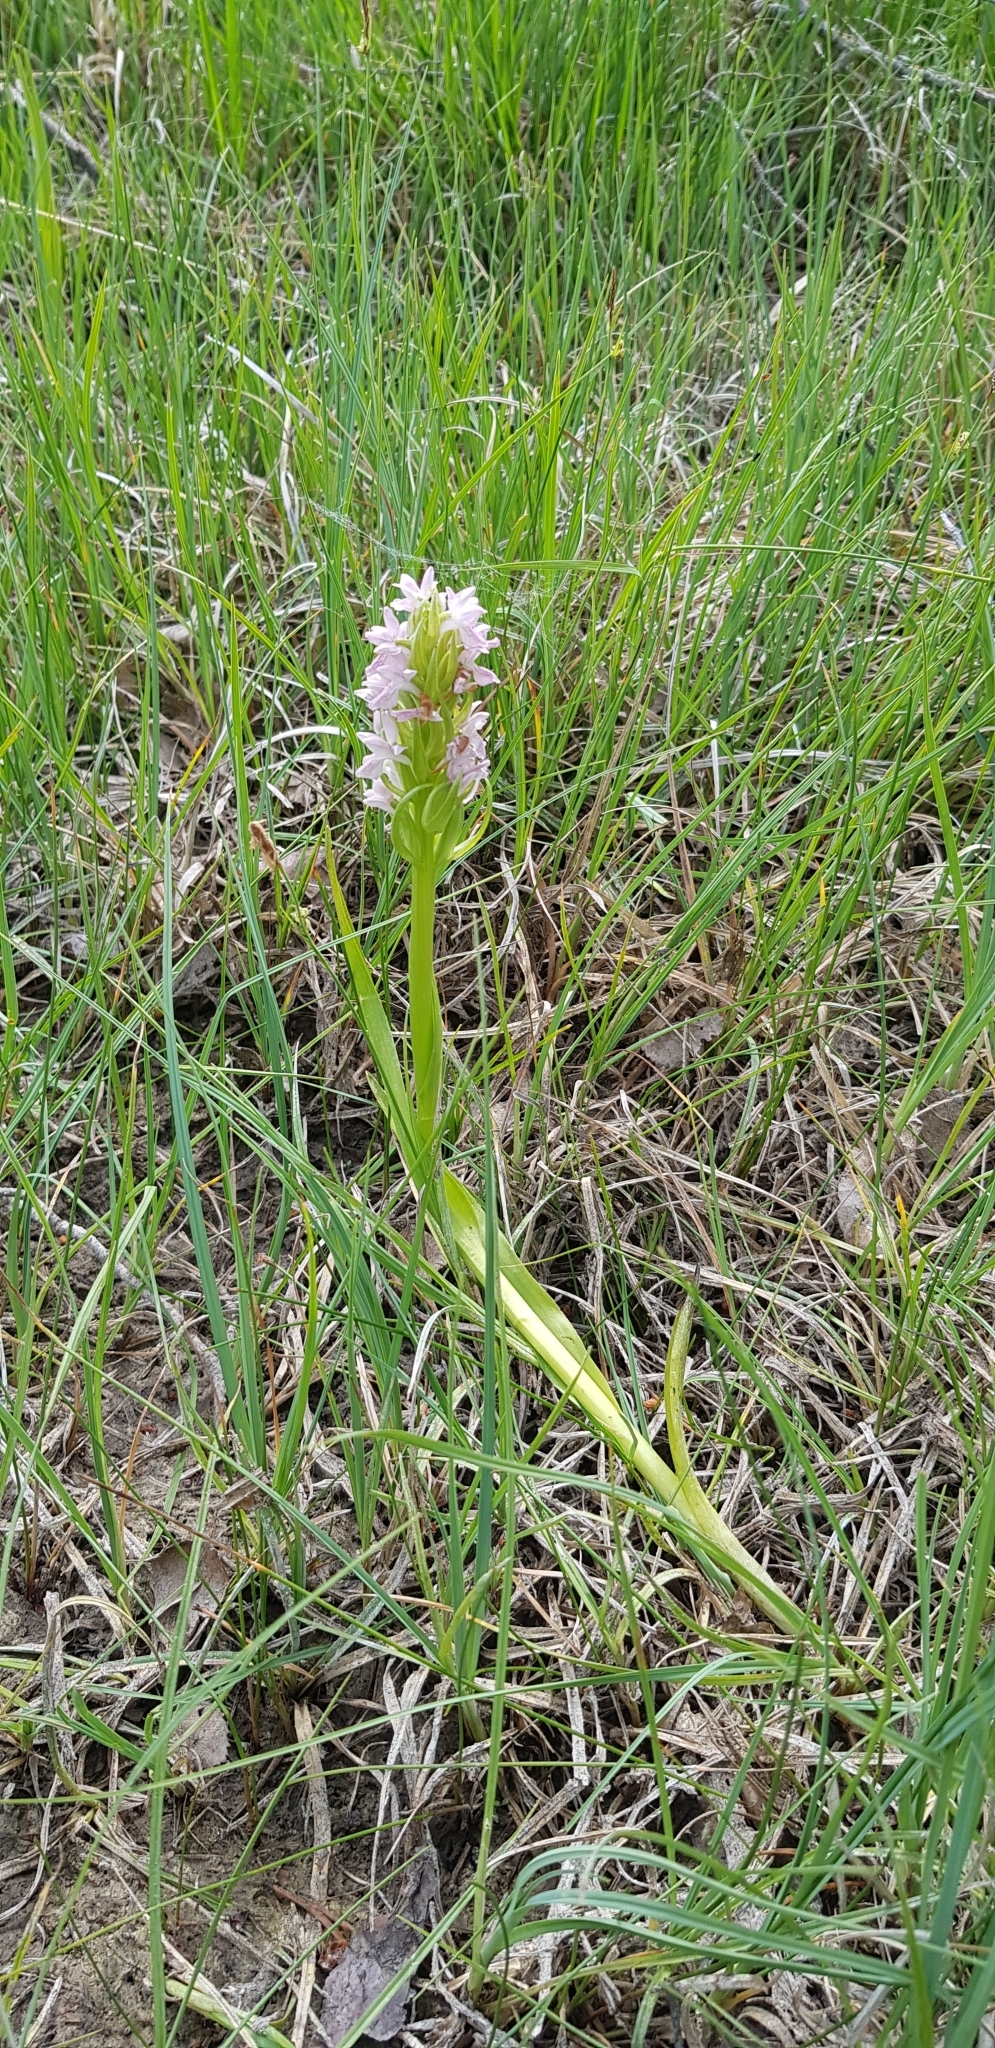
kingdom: Plantae
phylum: Tracheophyta
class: Liliopsida
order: Asparagales
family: Orchidaceae
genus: Dactylorhiza
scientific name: Dactylorhiza incarnata
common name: Early marsh-orchid
